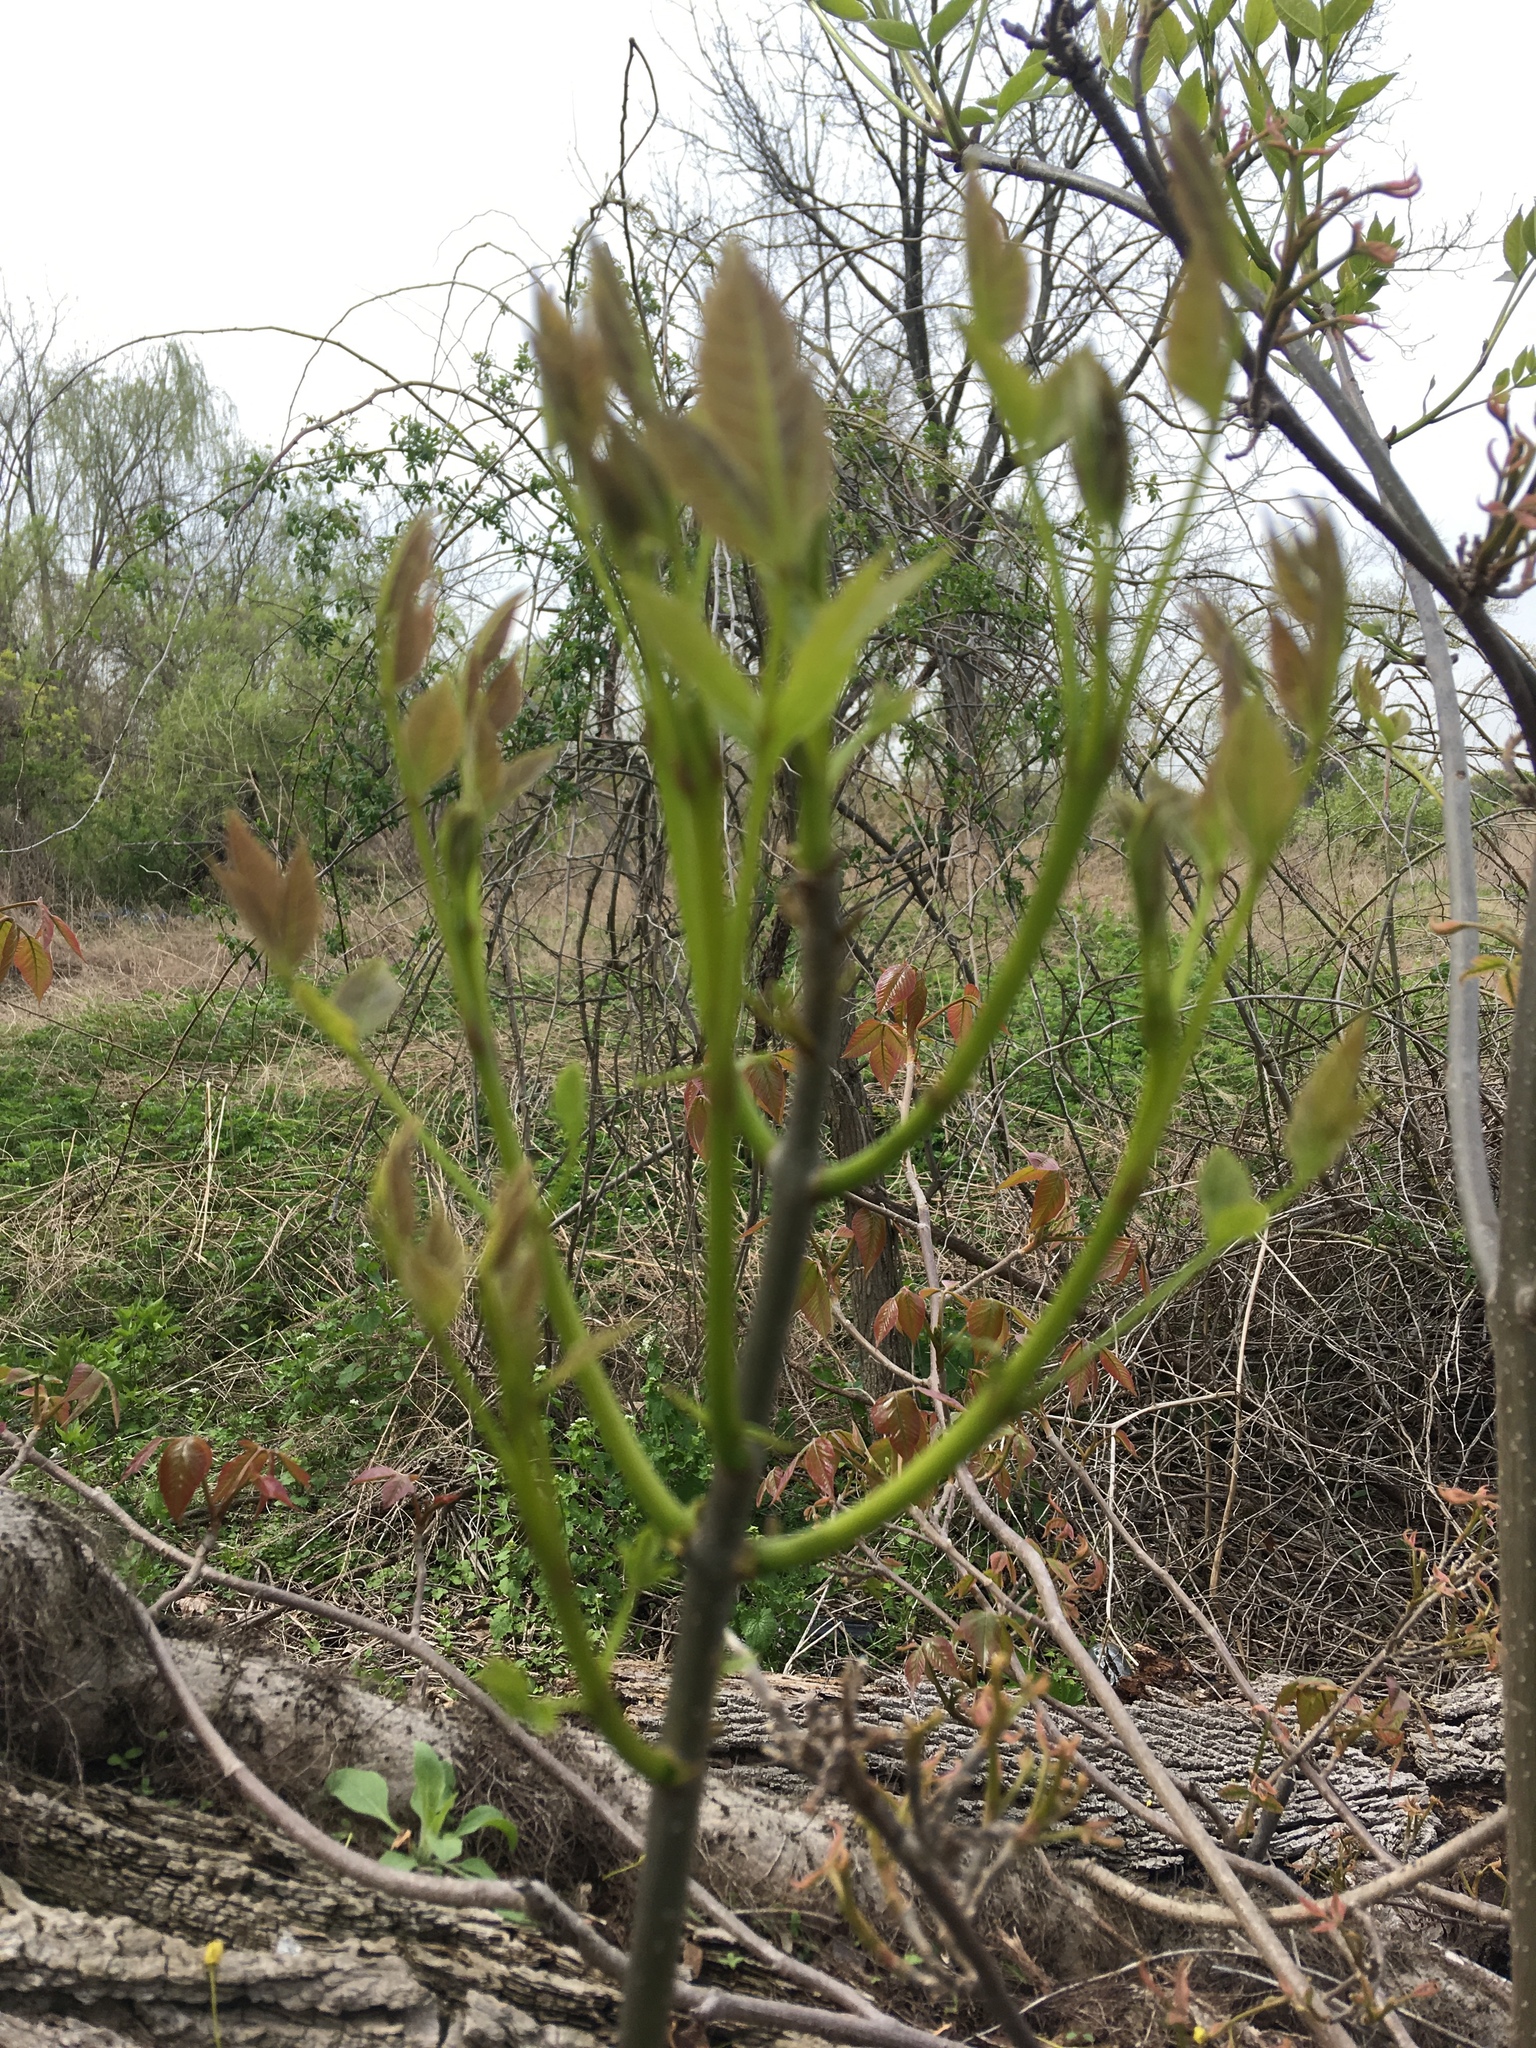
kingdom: Plantae
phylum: Tracheophyta
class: Magnoliopsida
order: Lamiales
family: Oleaceae
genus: Fraxinus
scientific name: Fraxinus pennsylvanica
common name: Green ash
